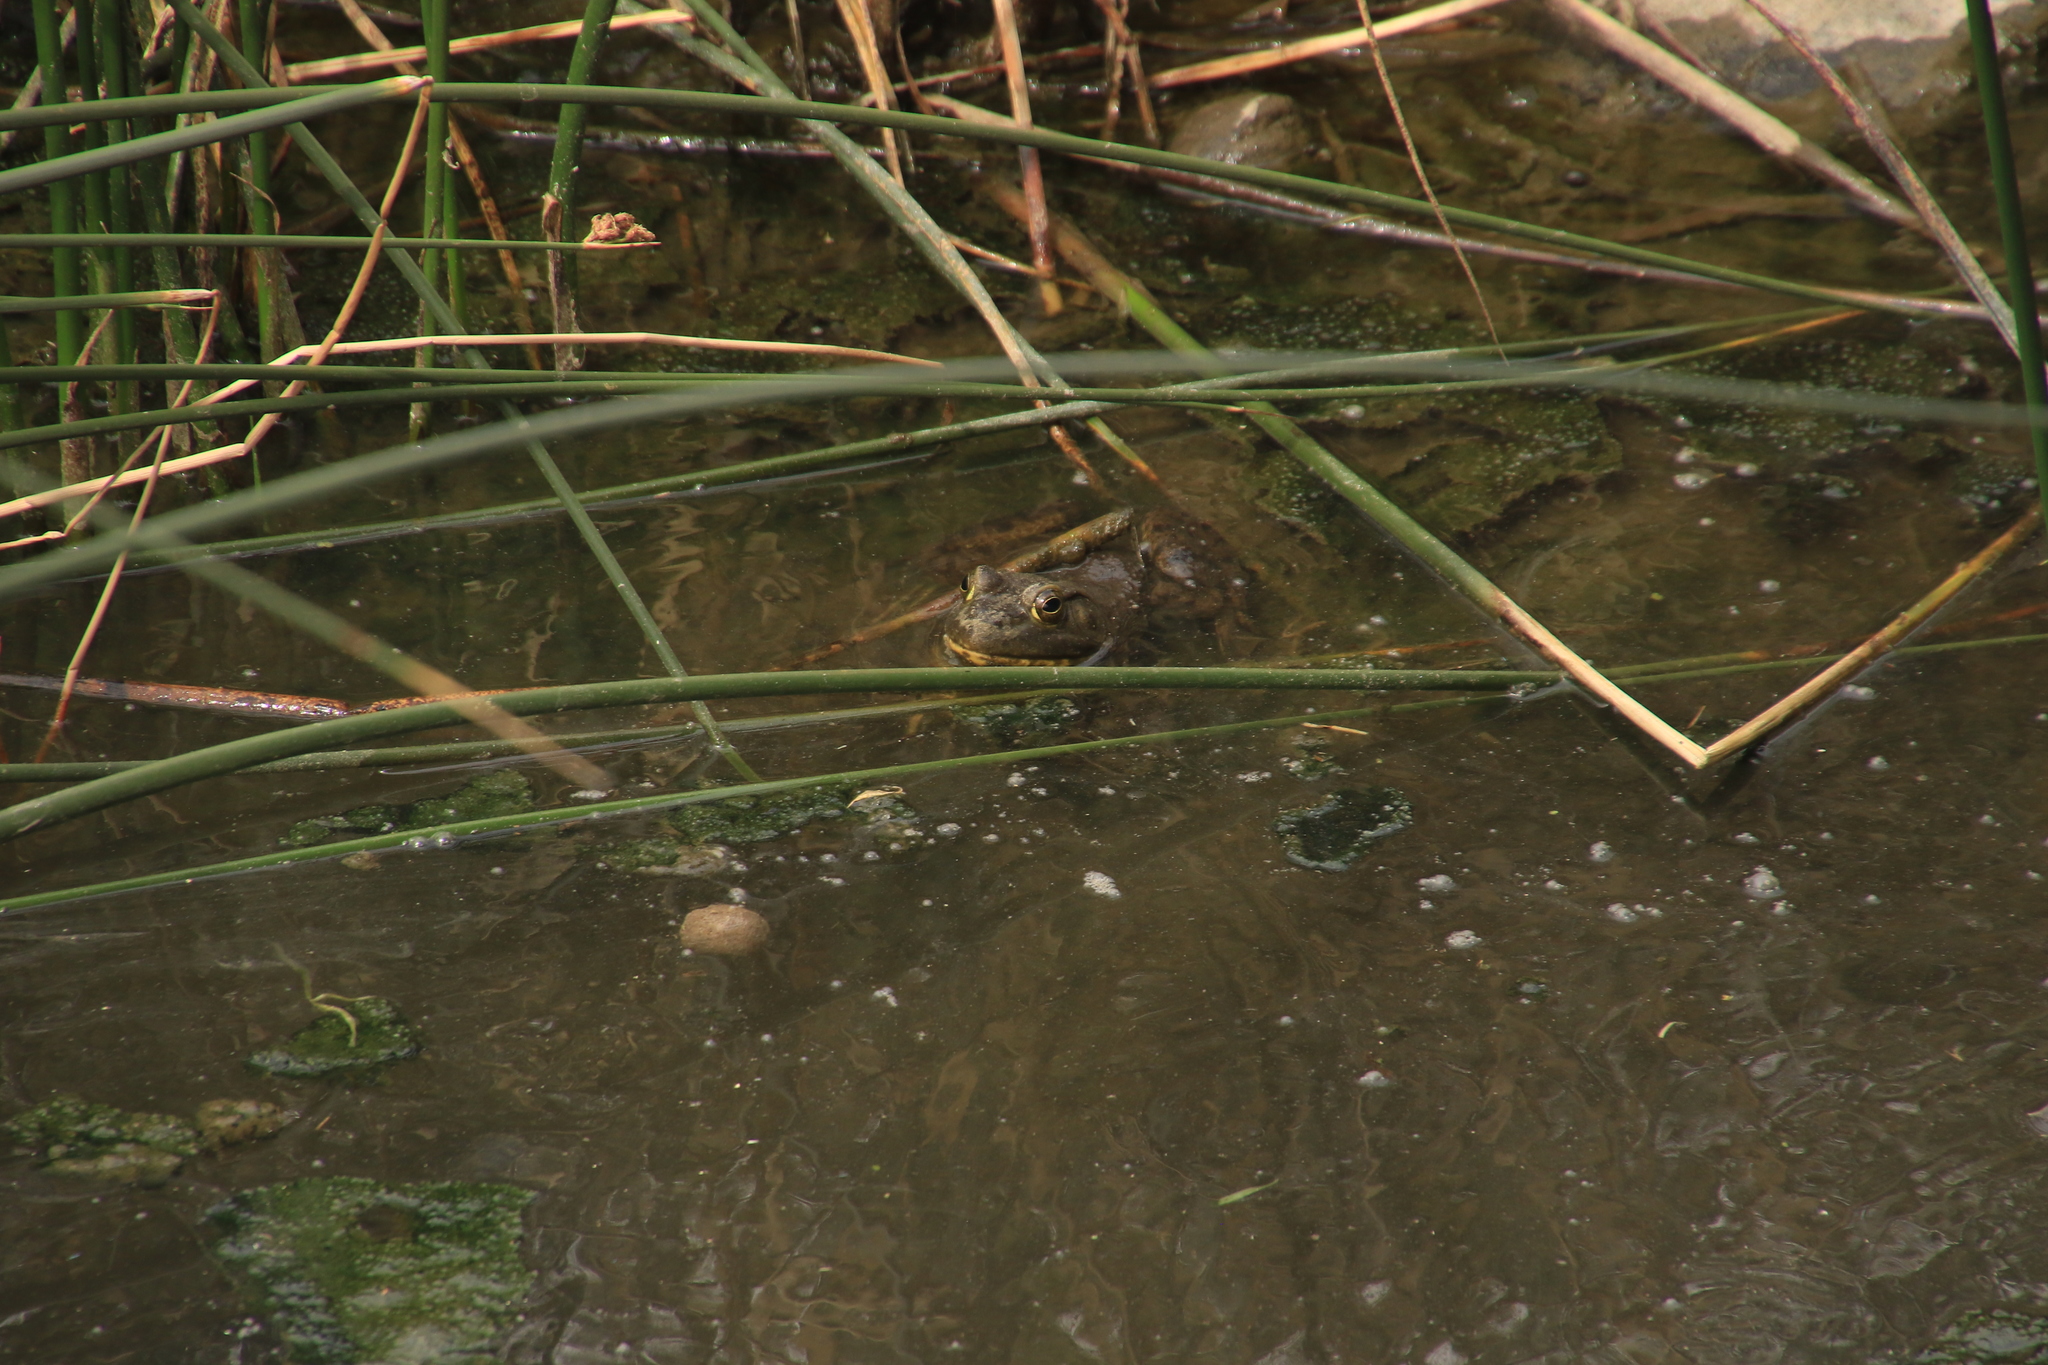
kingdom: Animalia
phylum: Chordata
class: Amphibia
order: Anura
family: Ranidae
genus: Lithobates
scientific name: Lithobates catesbeianus
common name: American bullfrog
